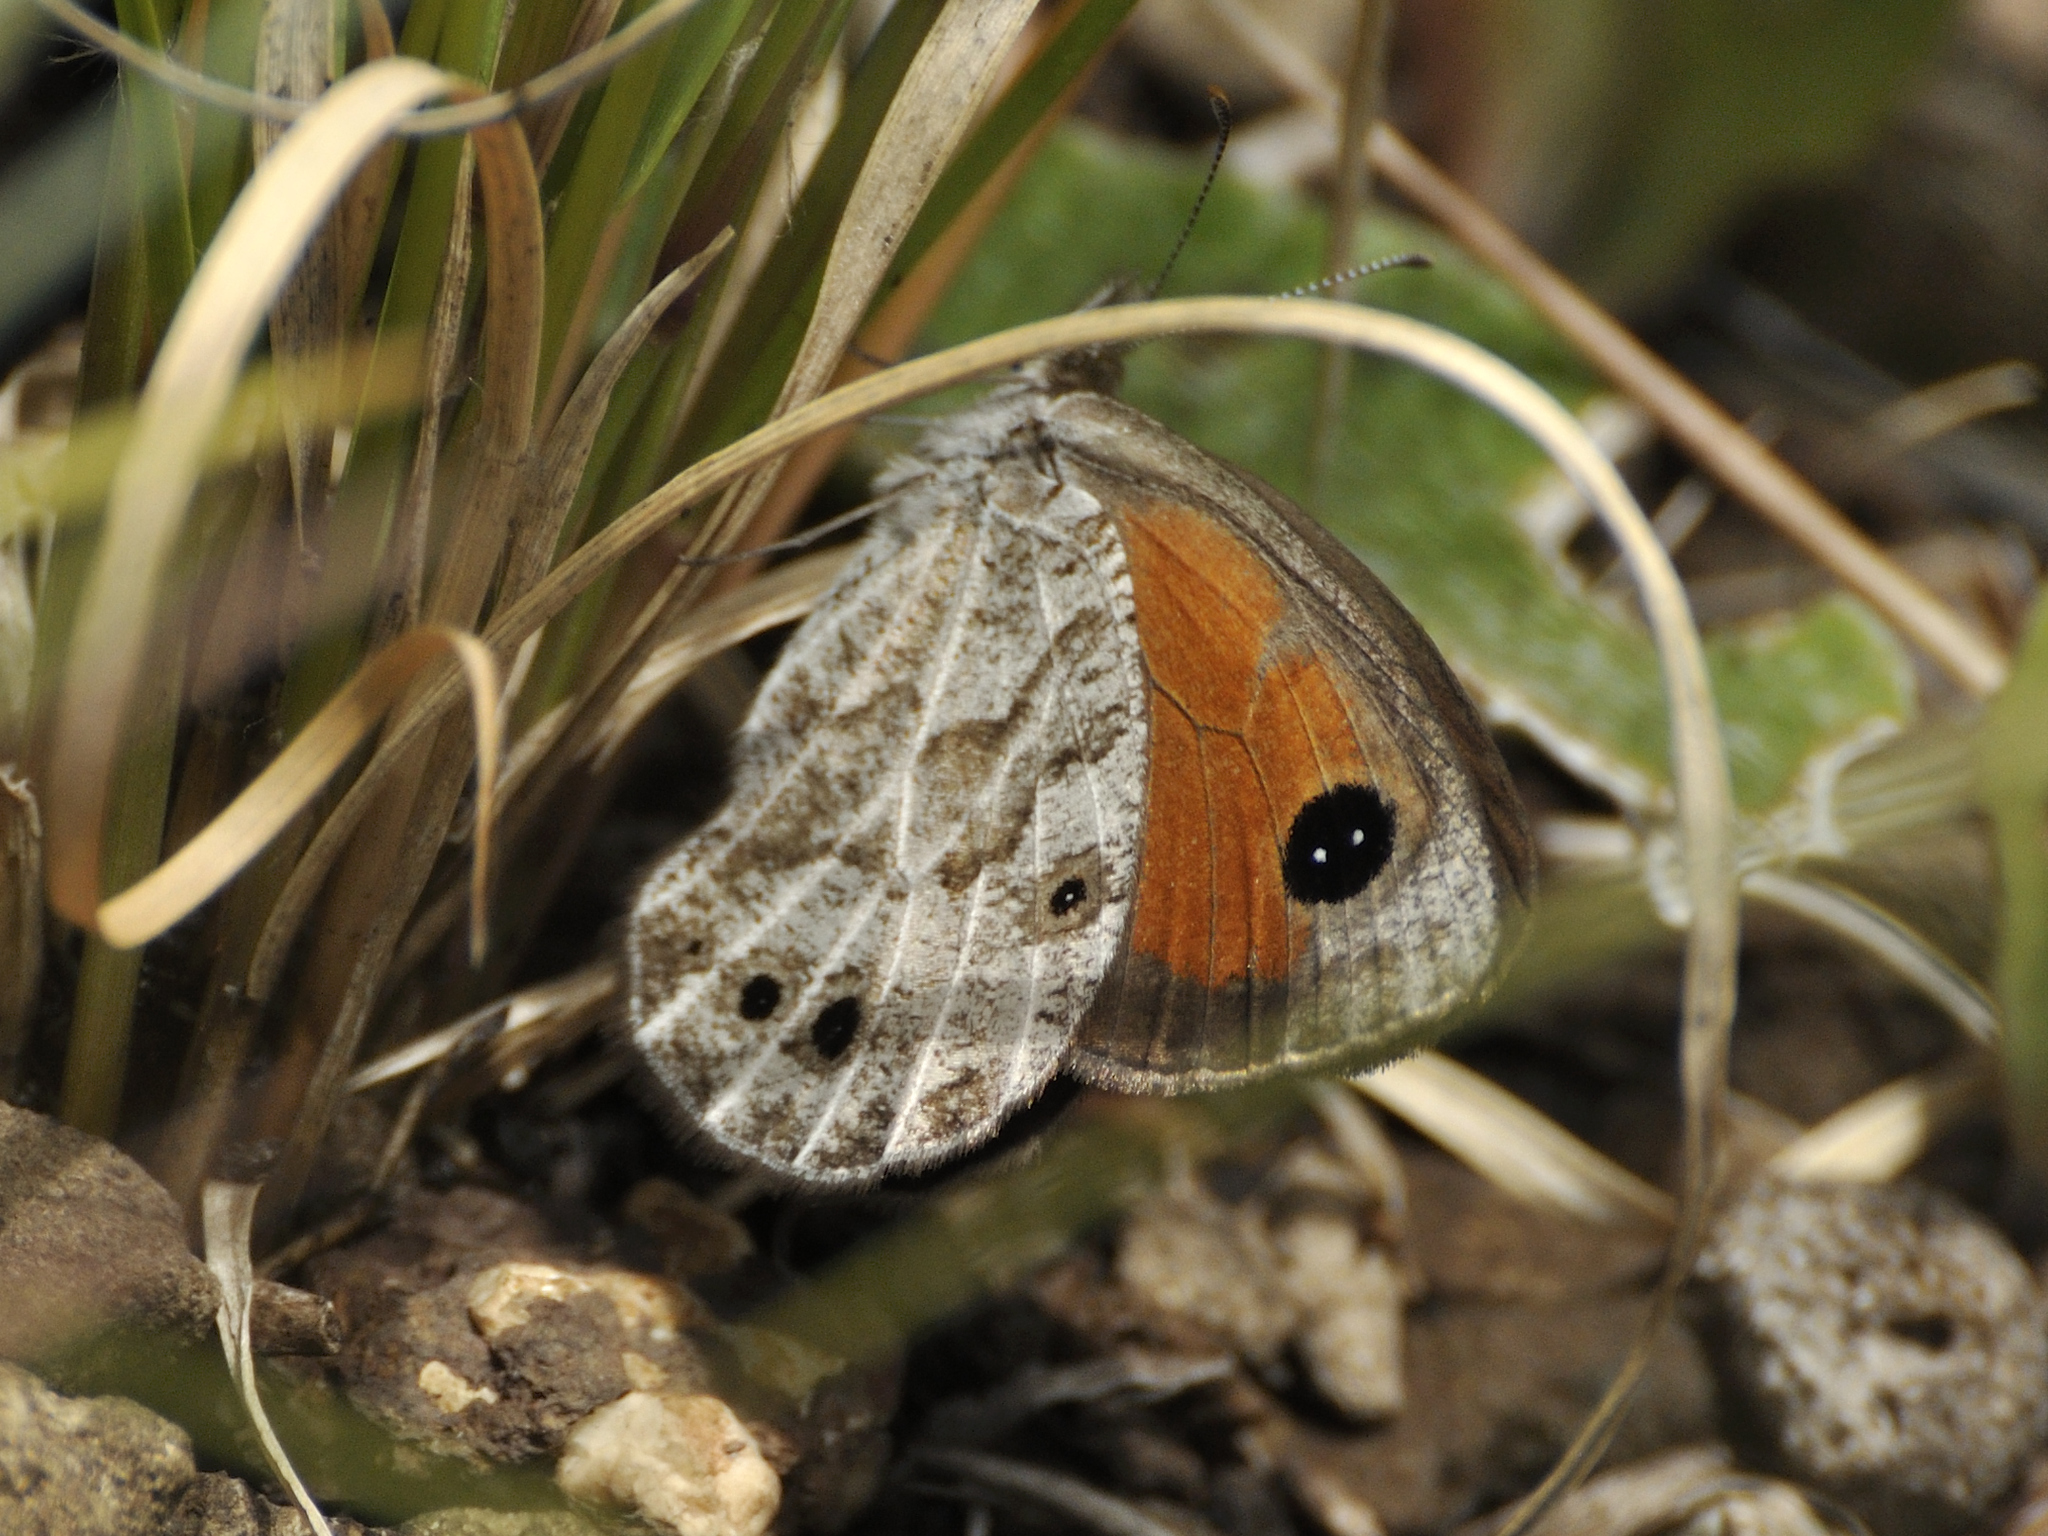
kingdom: Animalia
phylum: Arthropoda
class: Insecta
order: Lepidoptera
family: Nymphalidae
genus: Pseudonympha
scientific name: Pseudonympha magoides
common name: False silver-bottom brown
